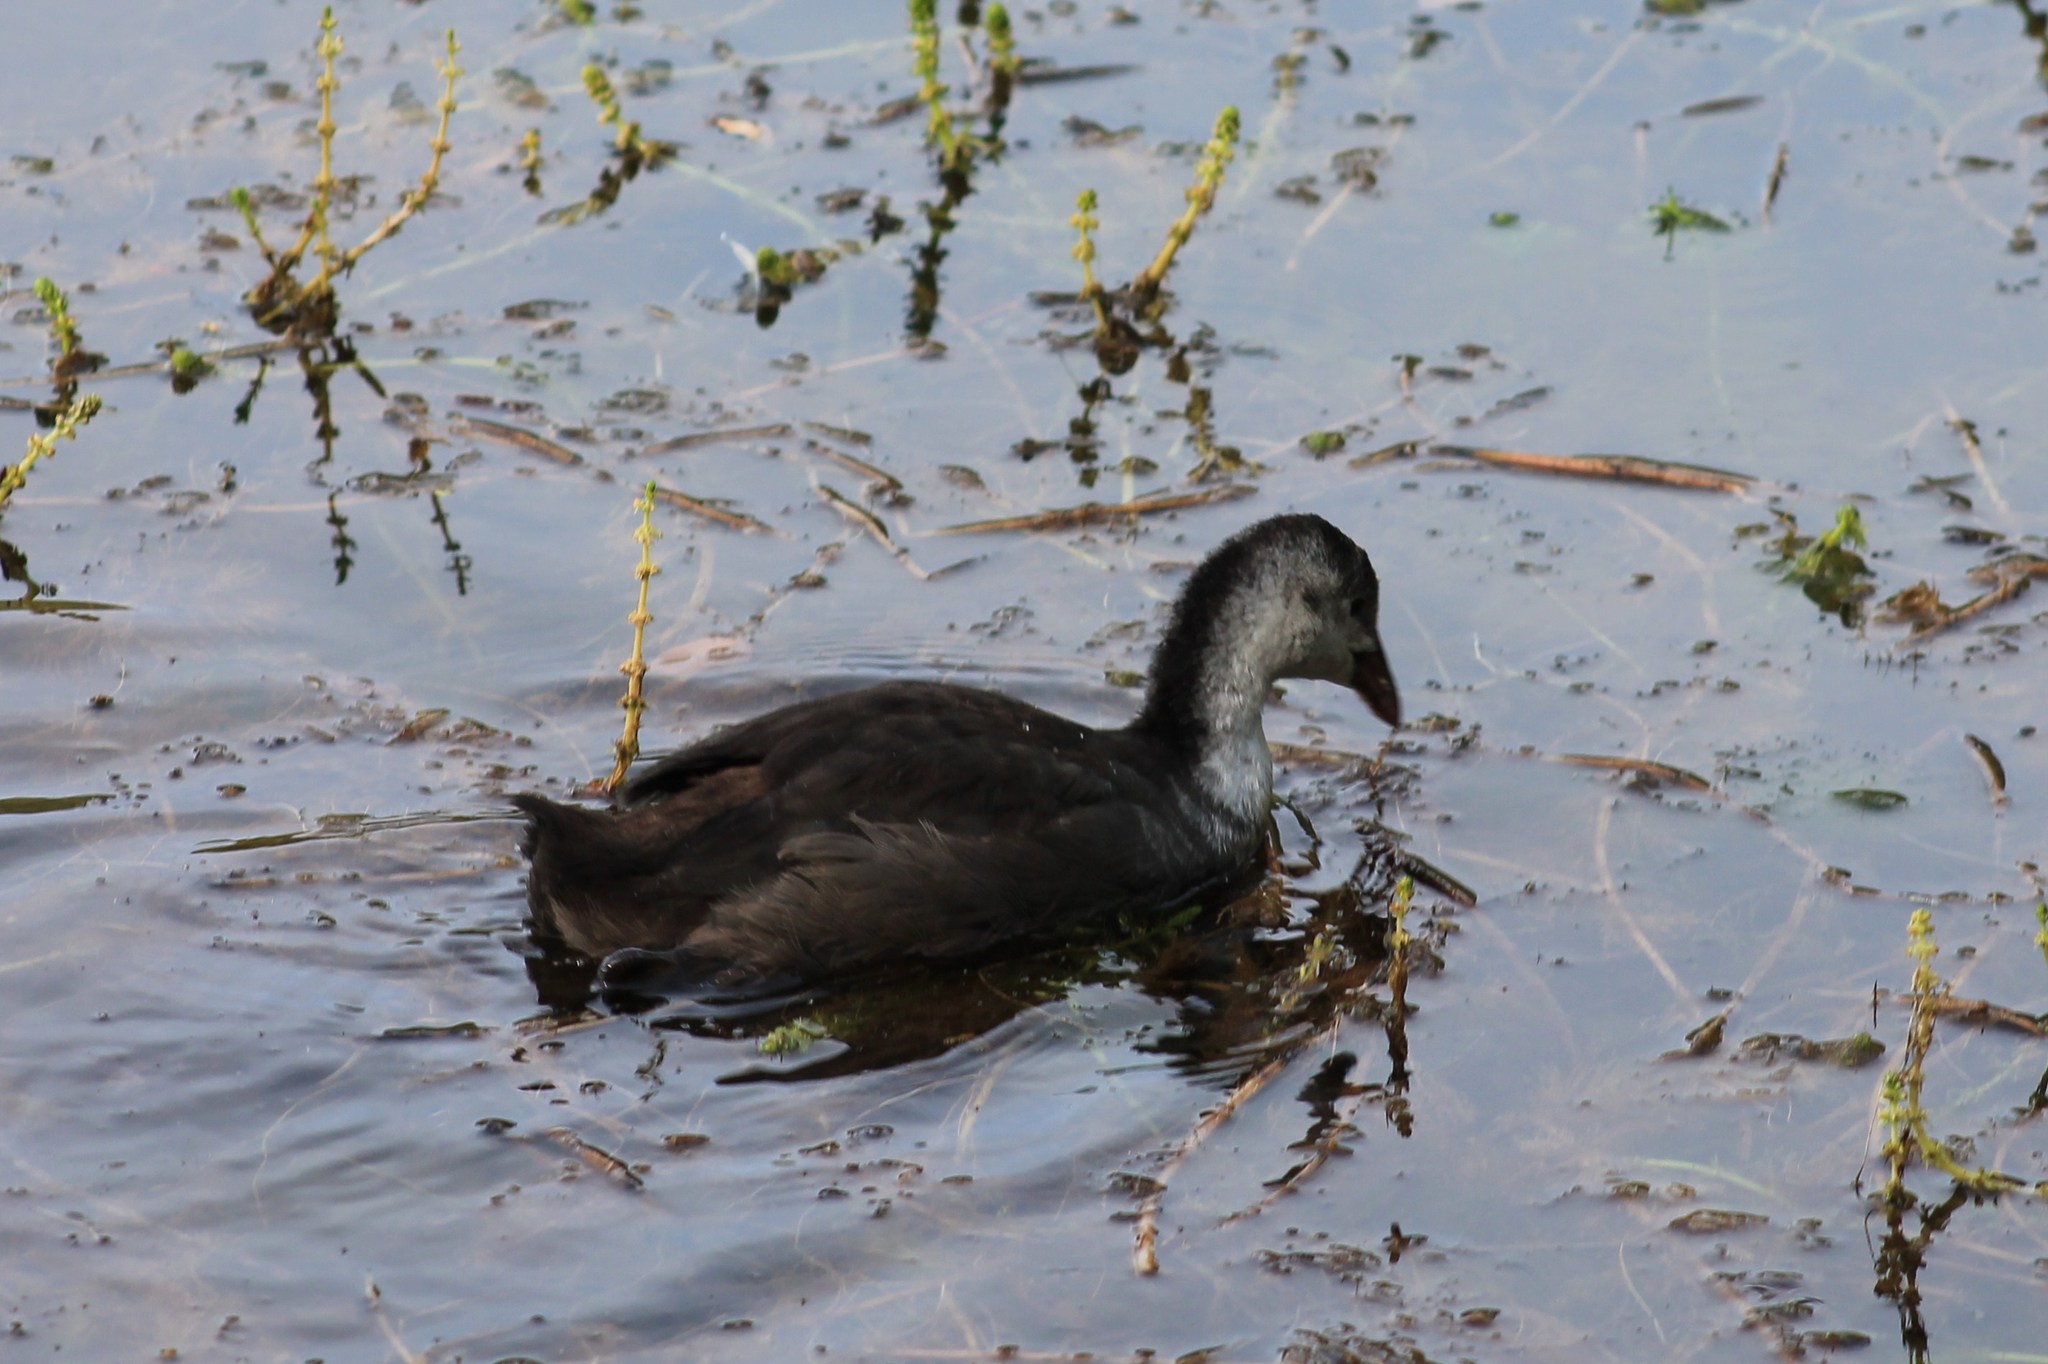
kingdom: Animalia
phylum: Chordata
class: Aves
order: Gruiformes
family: Rallidae
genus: Fulica
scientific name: Fulica atra
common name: Eurasian coot
